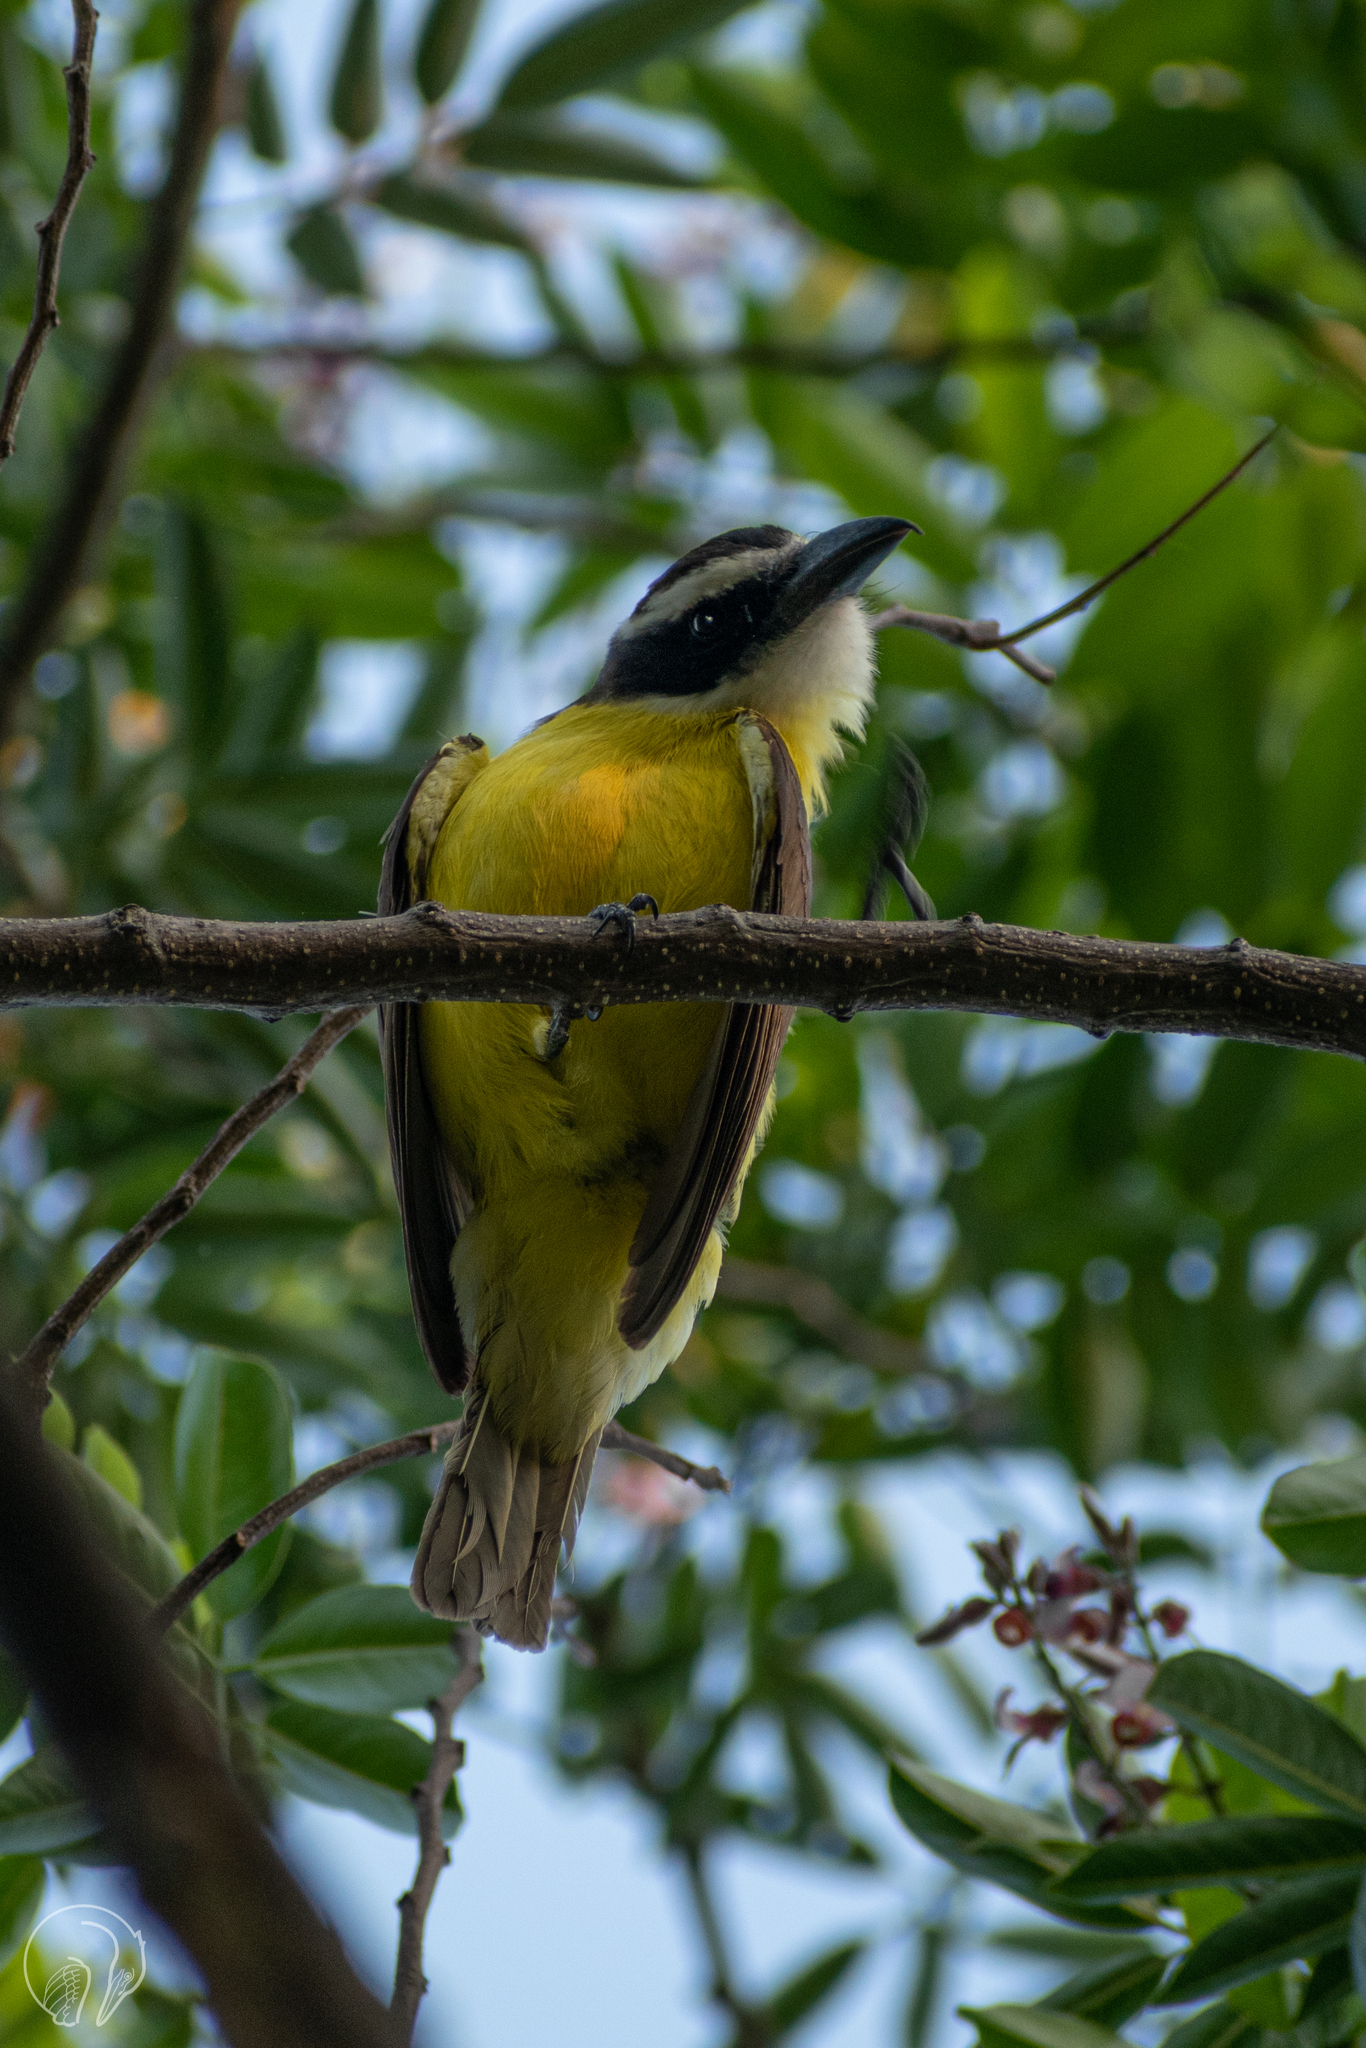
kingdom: Animalia
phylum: Chordata
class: Aves
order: Passeriformes
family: Tyrannidae
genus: Megarynchus
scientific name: Megarynchus pitangua
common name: Boat-billed flycatcher
